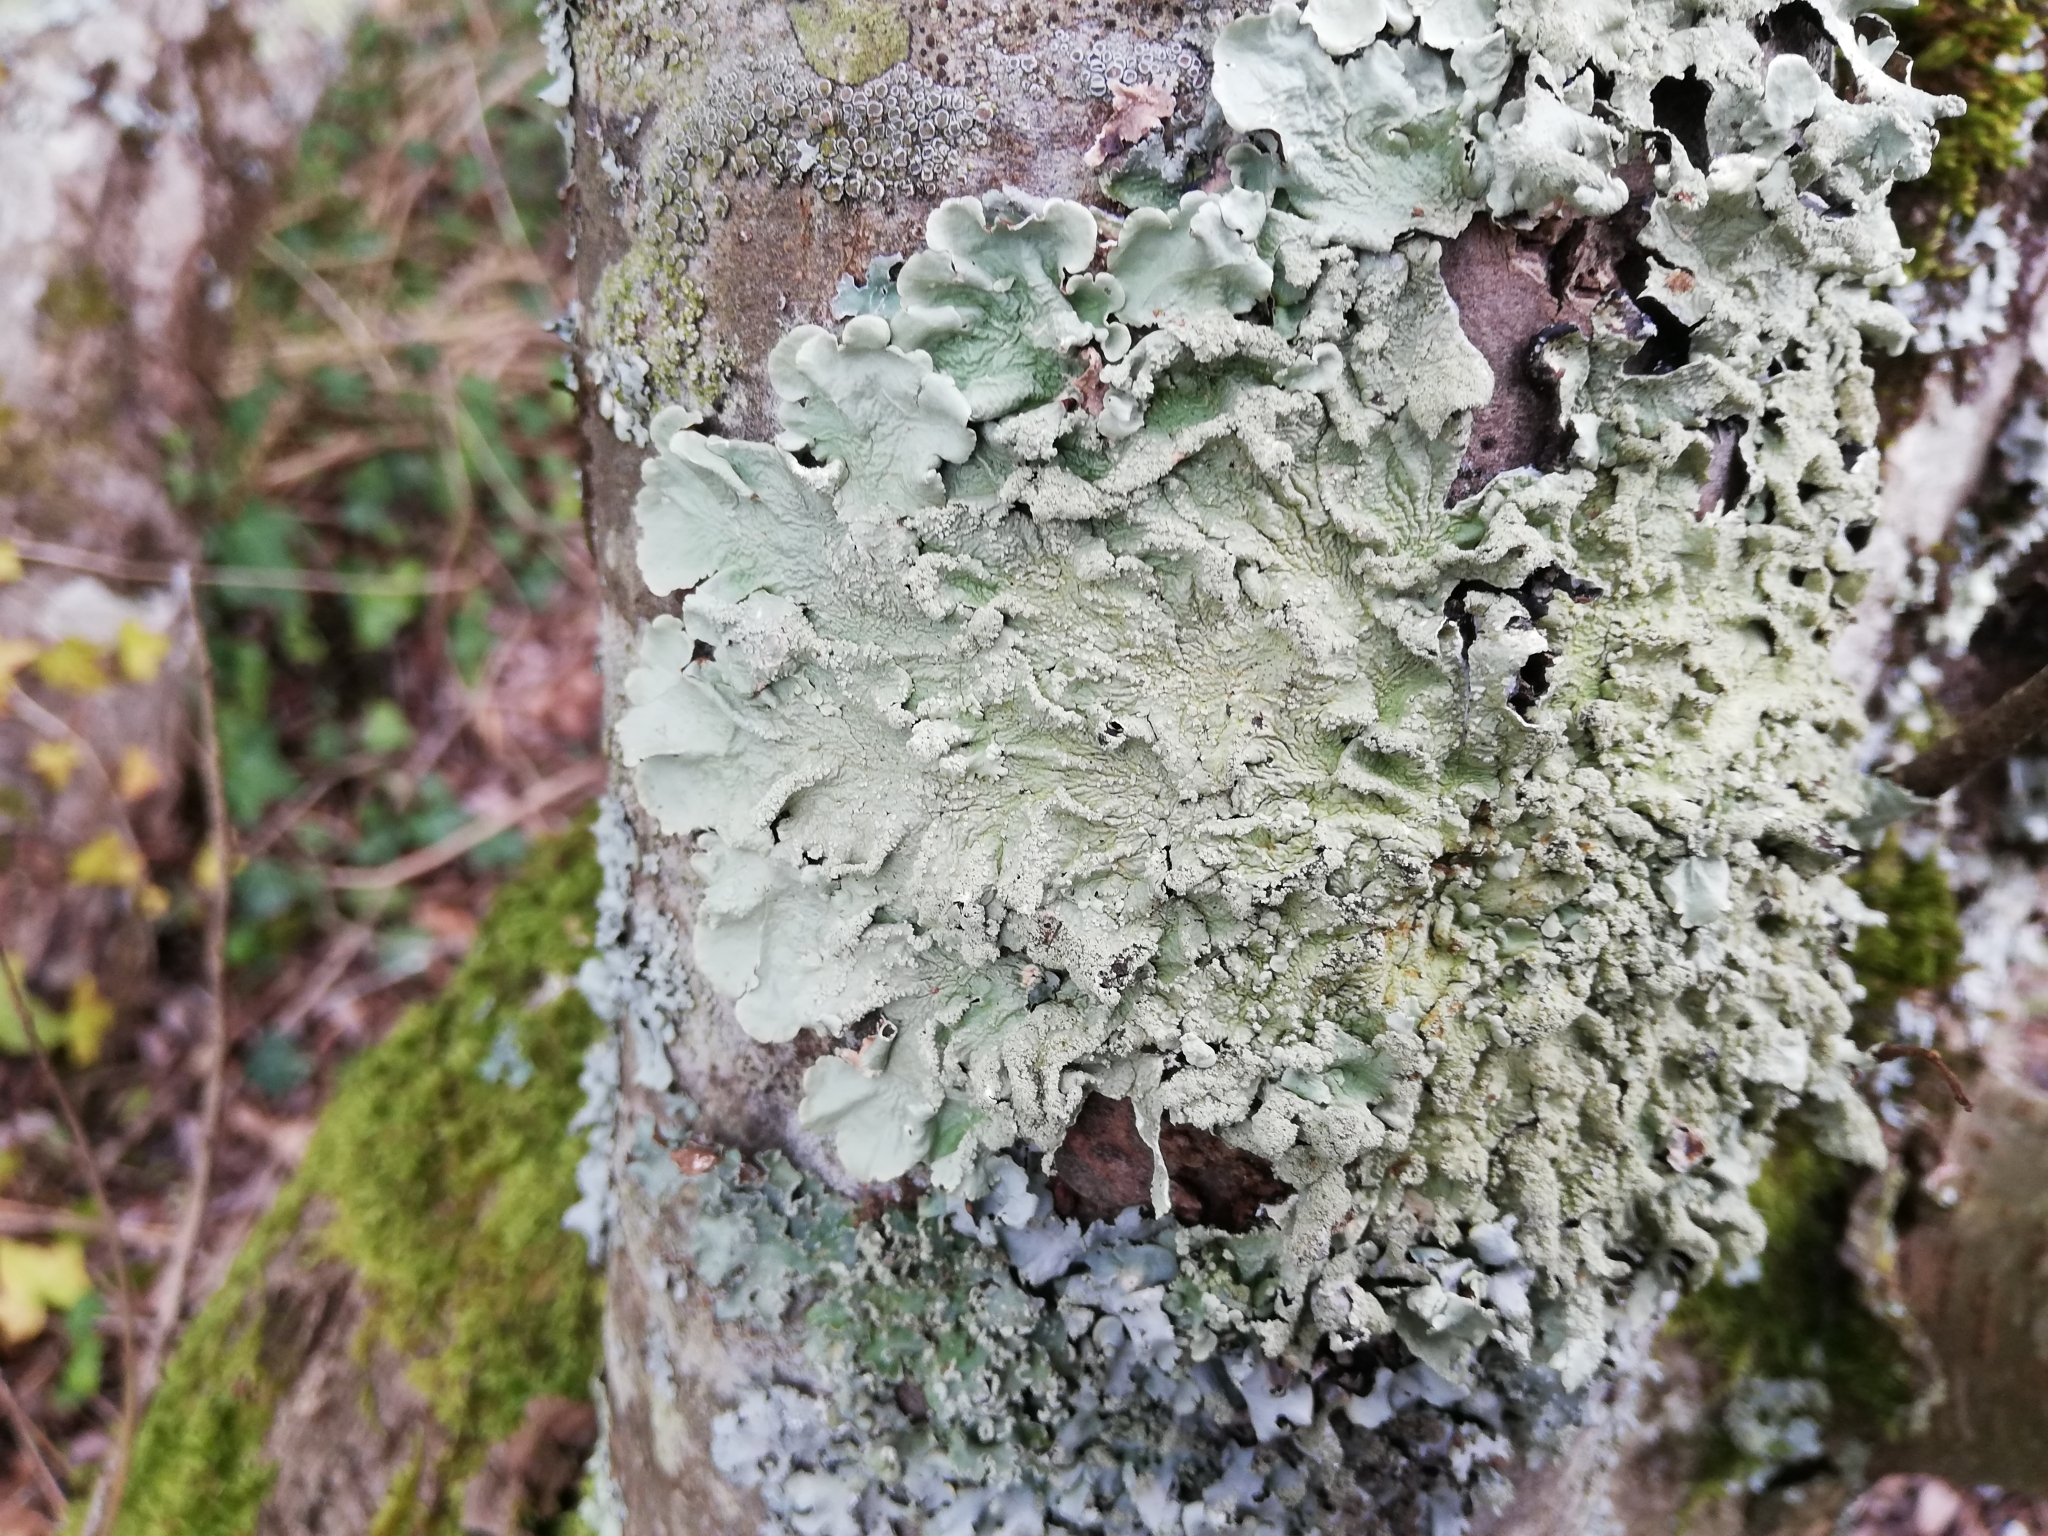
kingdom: Fungi
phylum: Ascomycota
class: Lecanoromycetes
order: Lecanorales
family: Parmeliaceae
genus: Flavoparmelia
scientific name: Flavoparmelia caperata
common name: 40-mile per hour lichen
